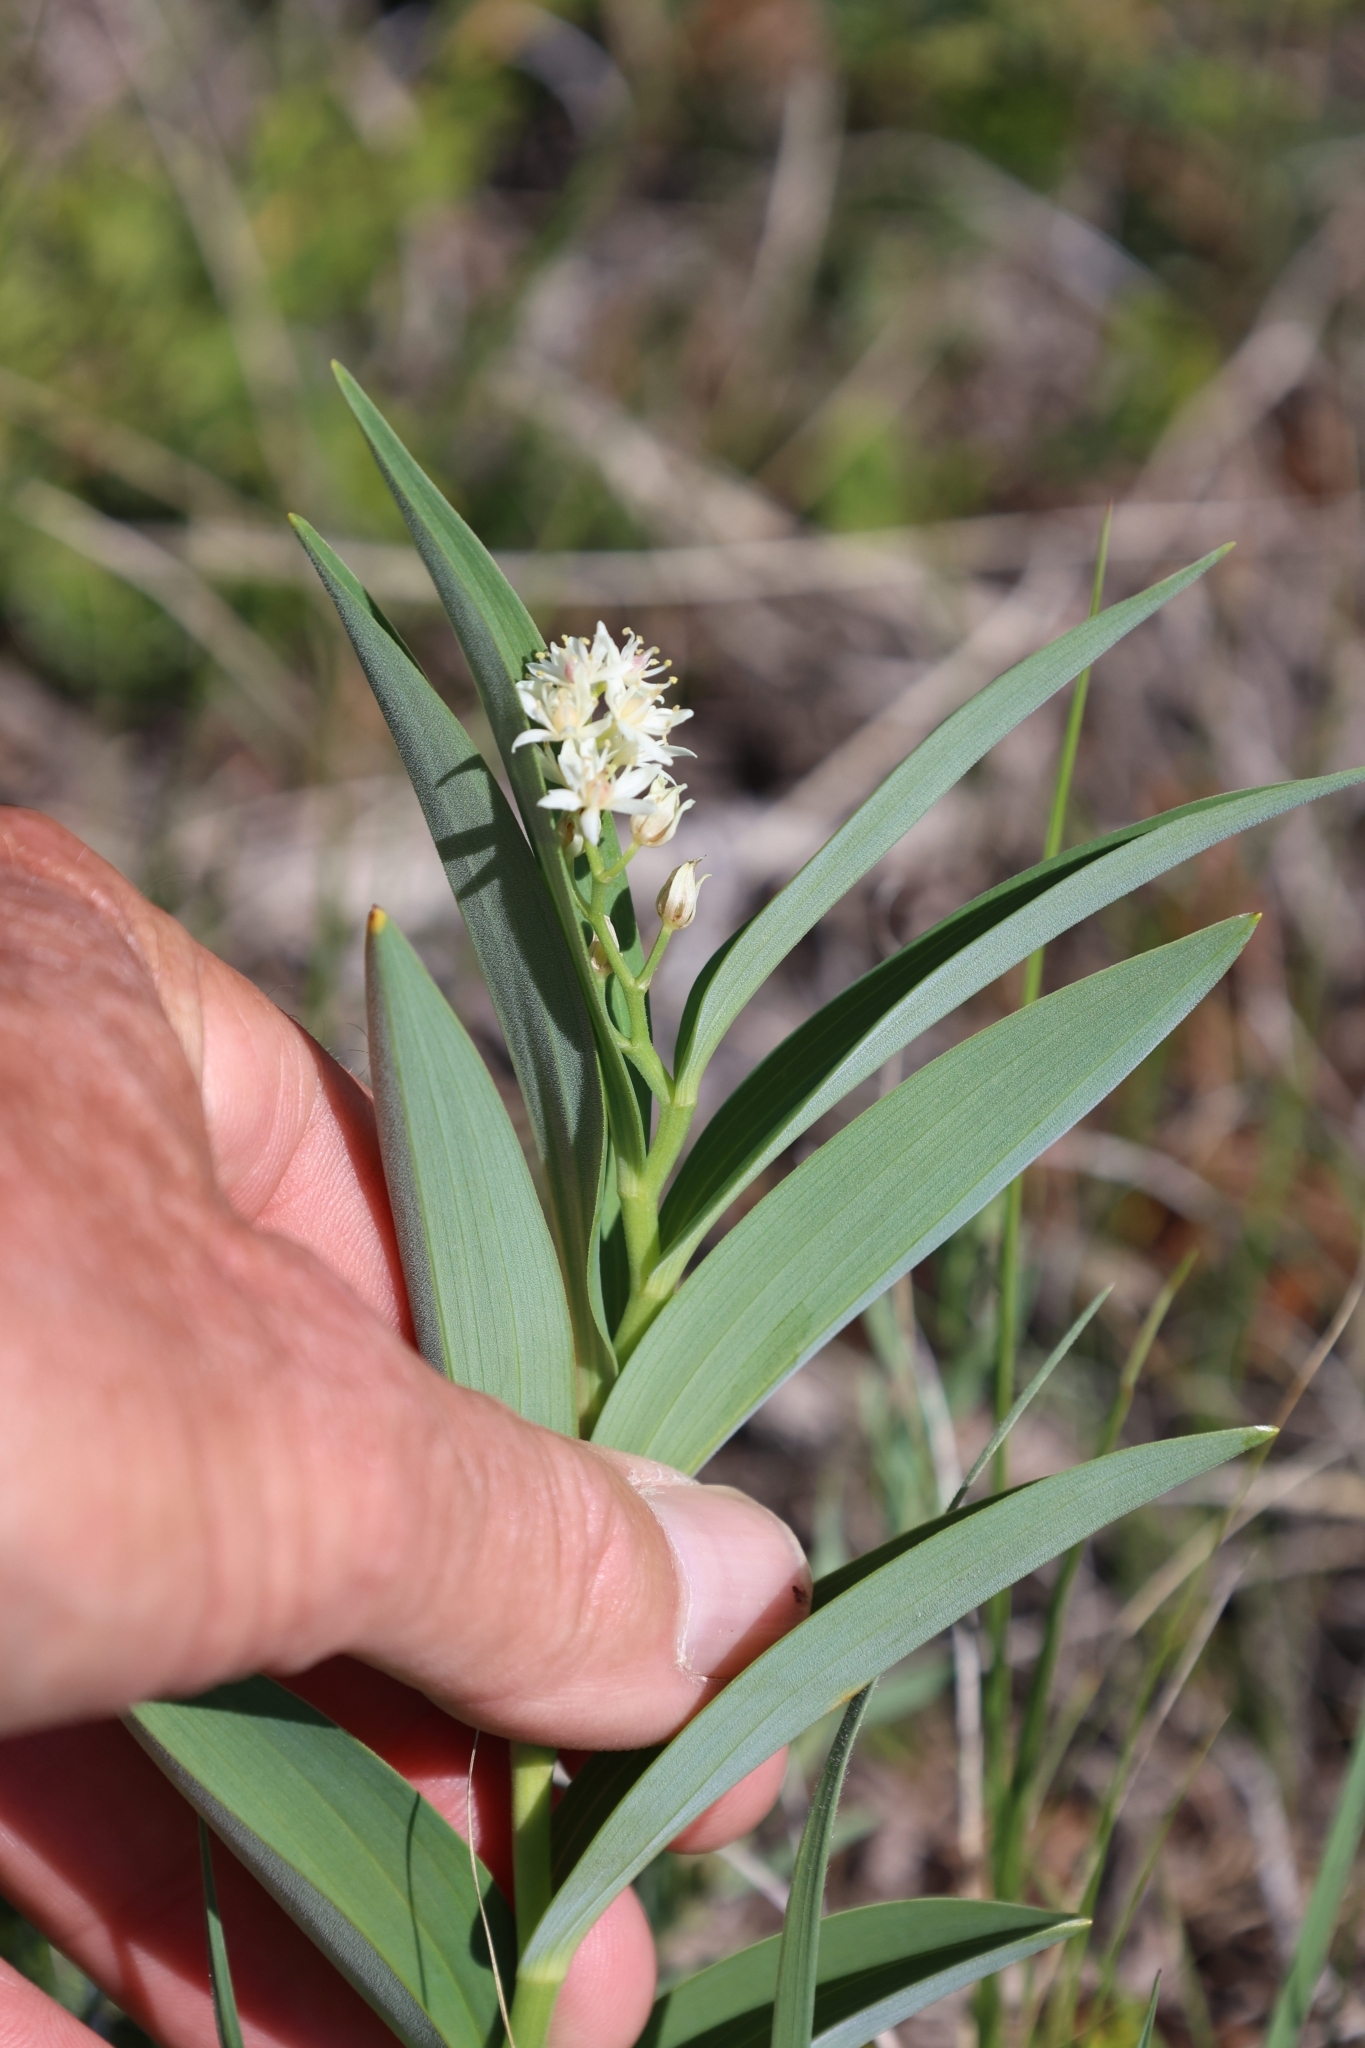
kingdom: Plantae
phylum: Tracheophyta
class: Liliopsida
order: Asparagales
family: Asparagaceae
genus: Maianthemum
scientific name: Maianthemum stellatum
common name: Little false solomon's seal
